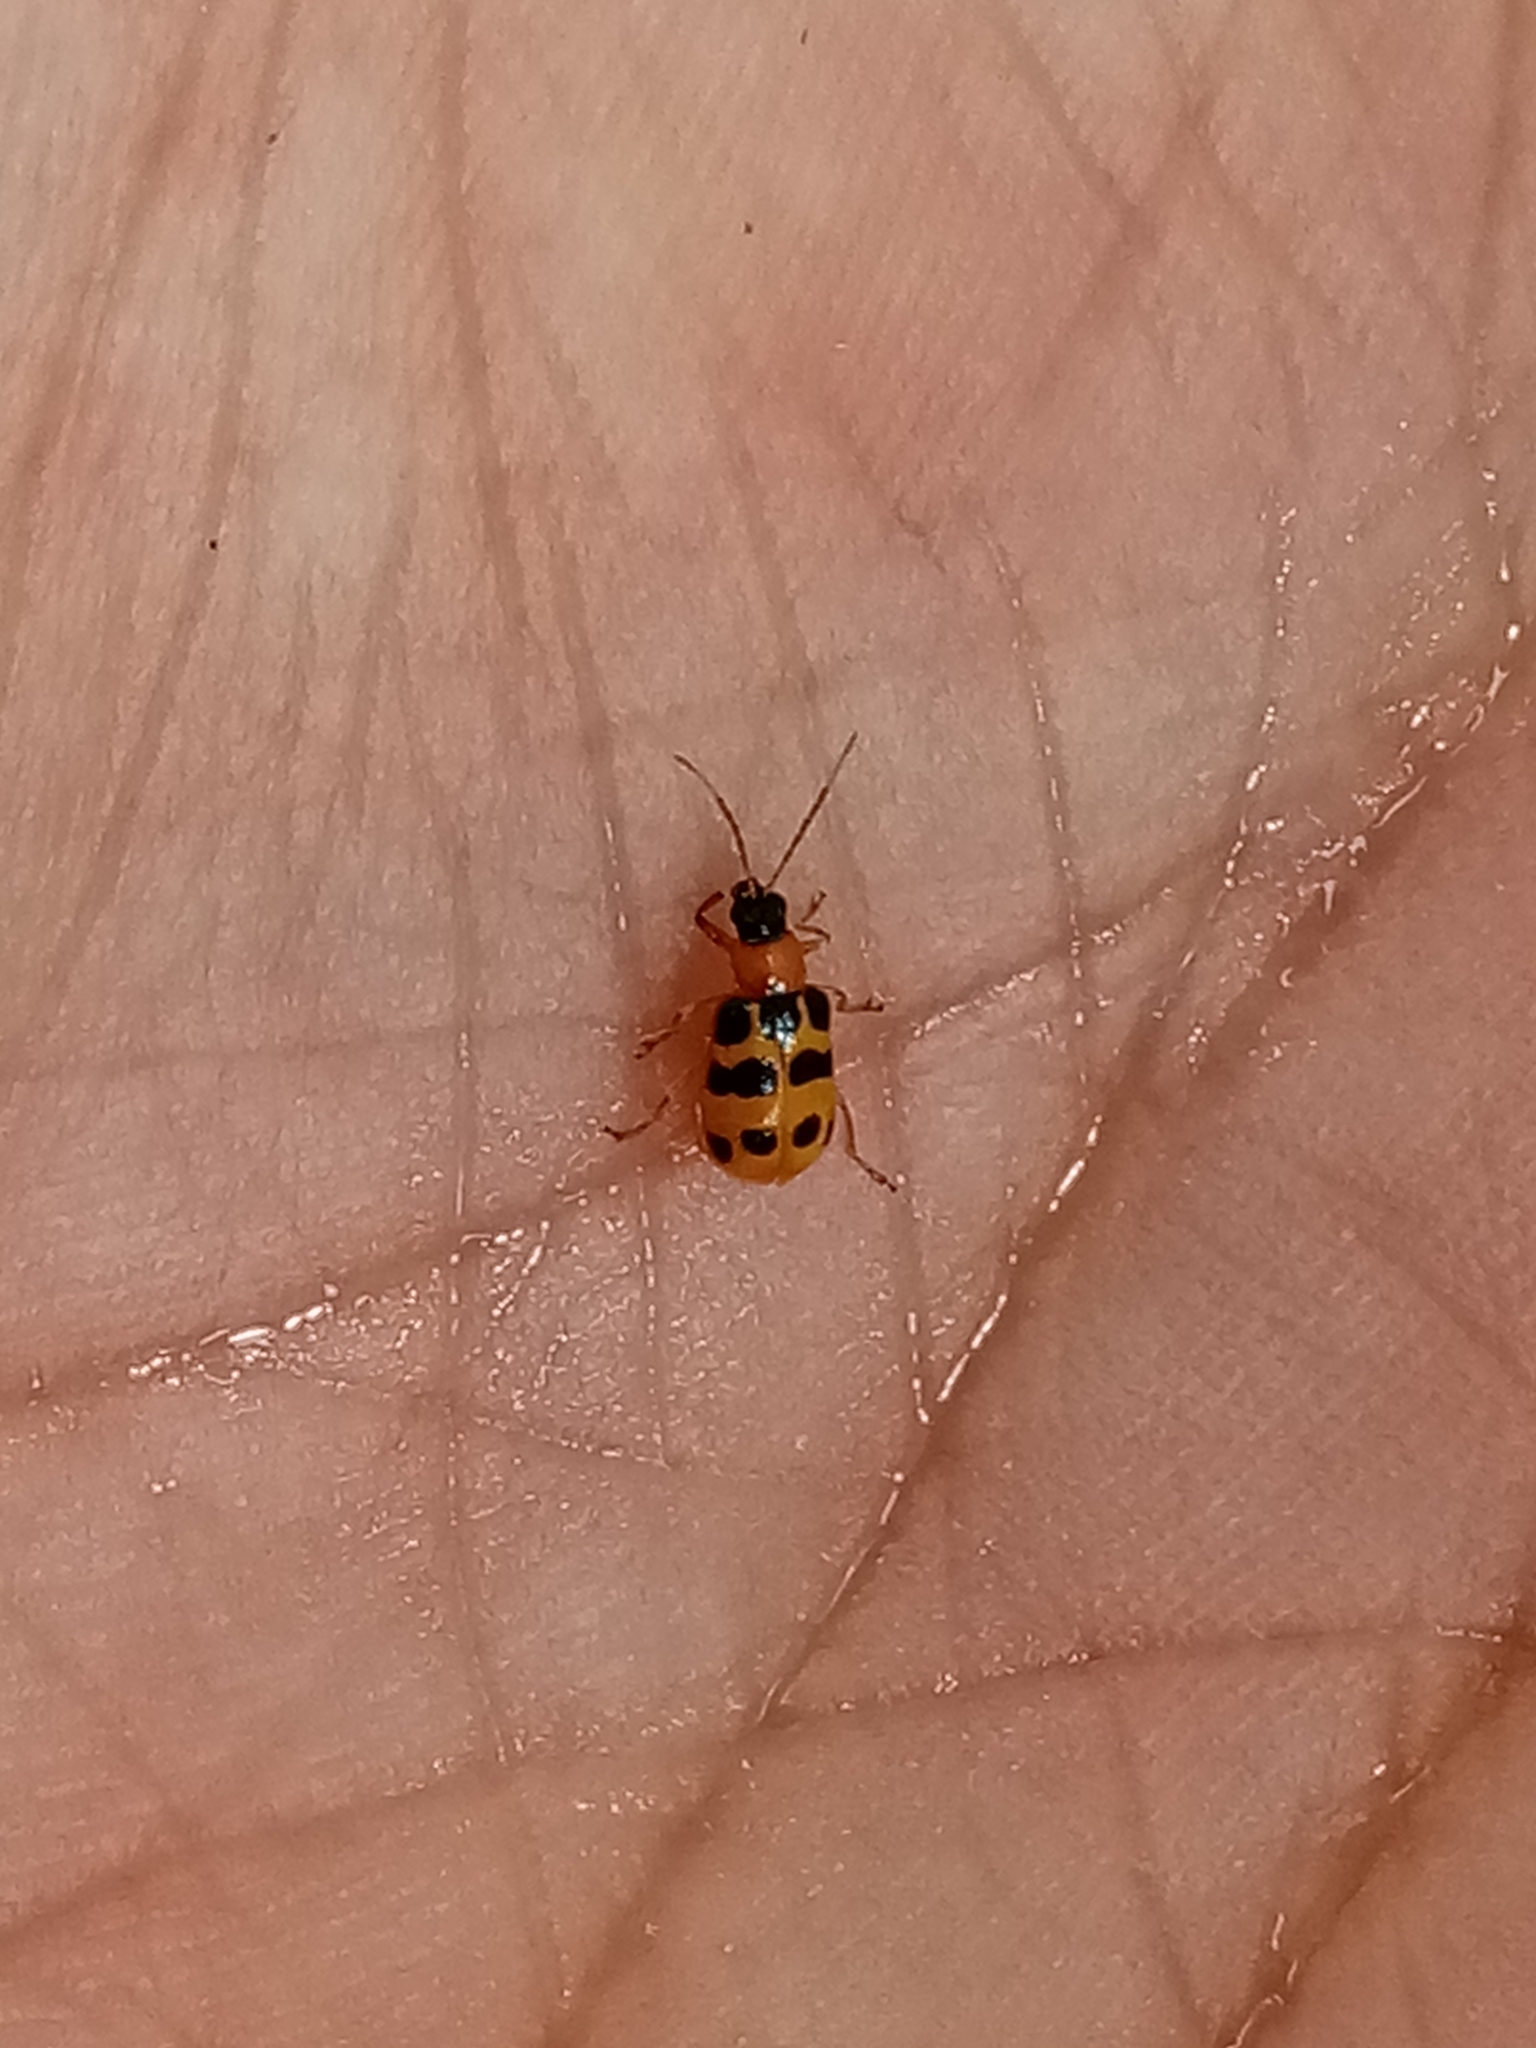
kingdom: Animalia
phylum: Arthropoda
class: Insecta
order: Coleoptera
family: Chrysomelidae
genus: Diabrotica
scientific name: Diabrotica
